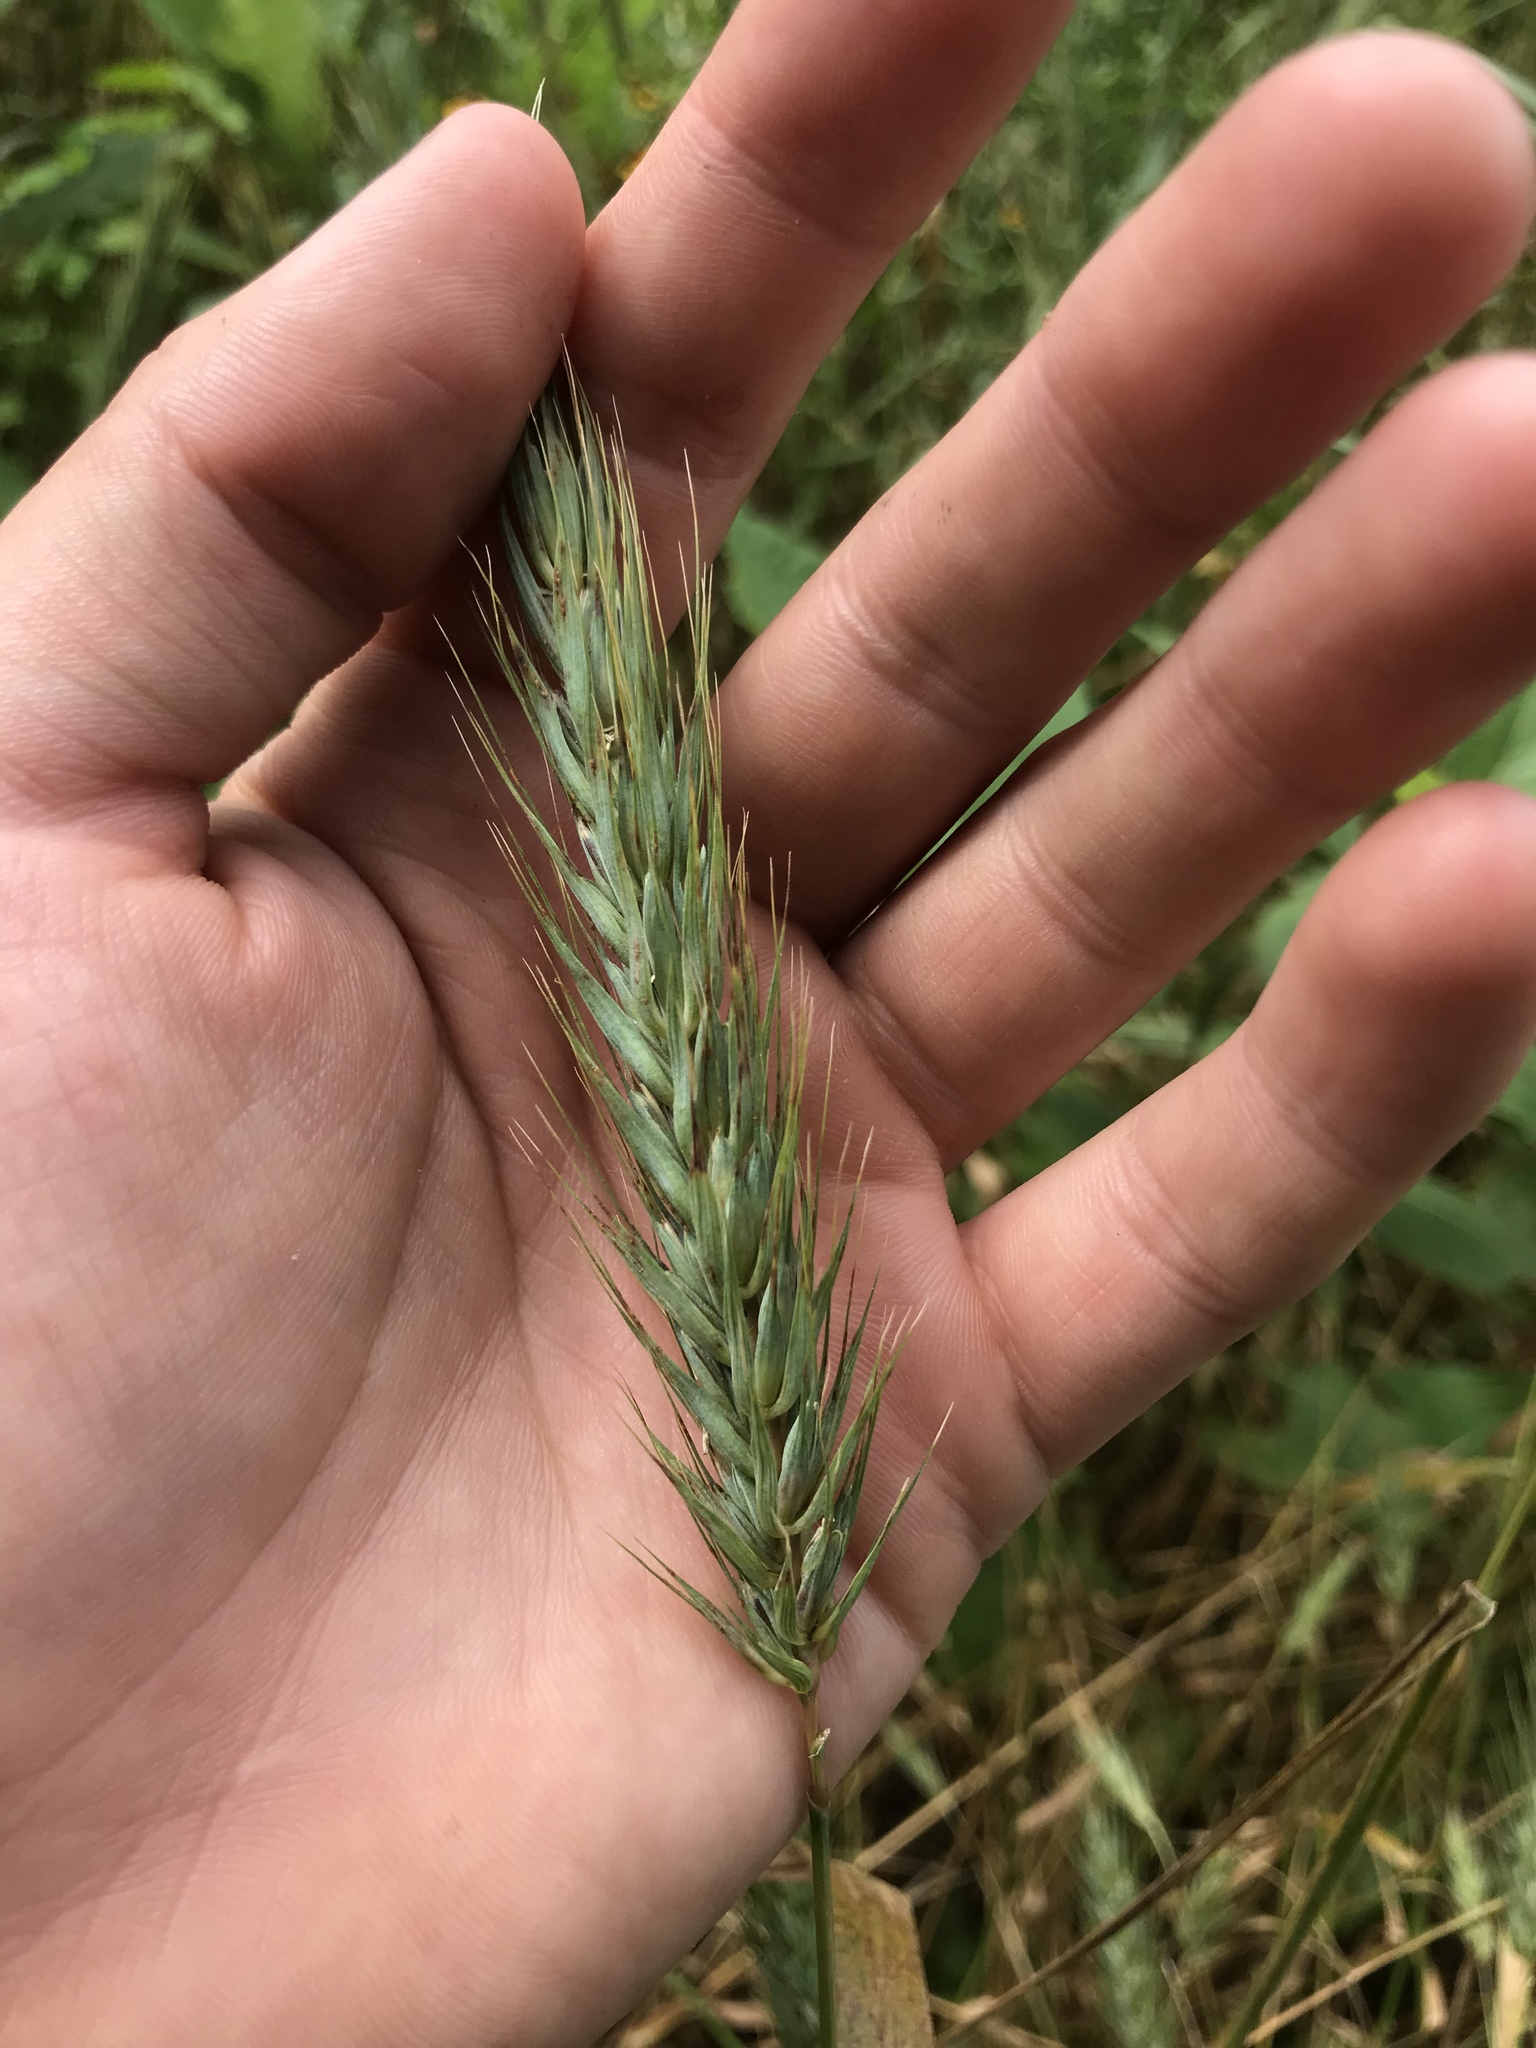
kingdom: Plantae
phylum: Tracheophyta
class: Liliopsida
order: Poales
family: Poaceae
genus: Elymus
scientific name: Elymus virginicus
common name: Common eastern wildrye
